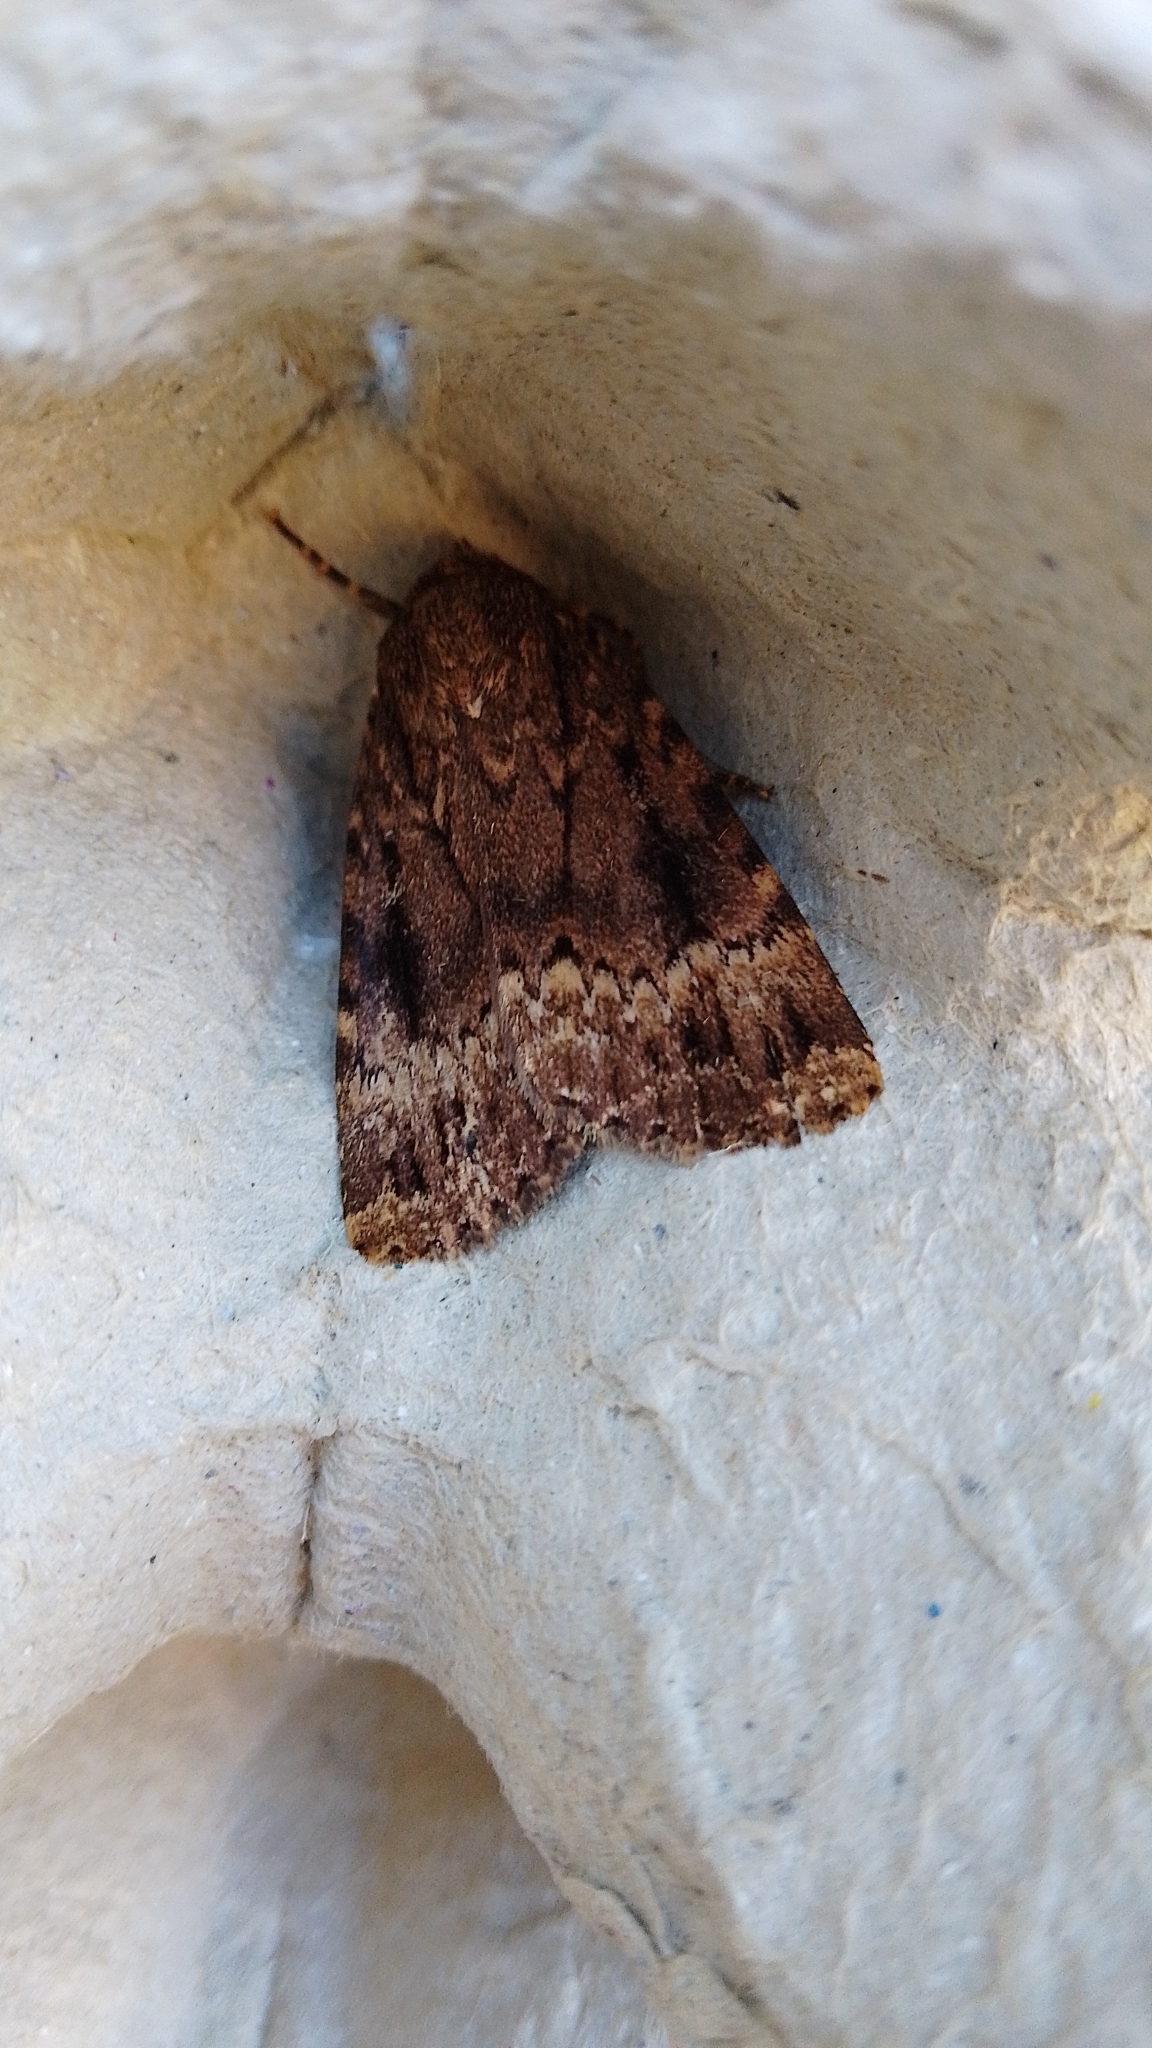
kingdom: Animalia
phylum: Arthropoda
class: Insecta
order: Lepidoptera
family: Noctuidae
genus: Amphipyra
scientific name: Amphipyra
